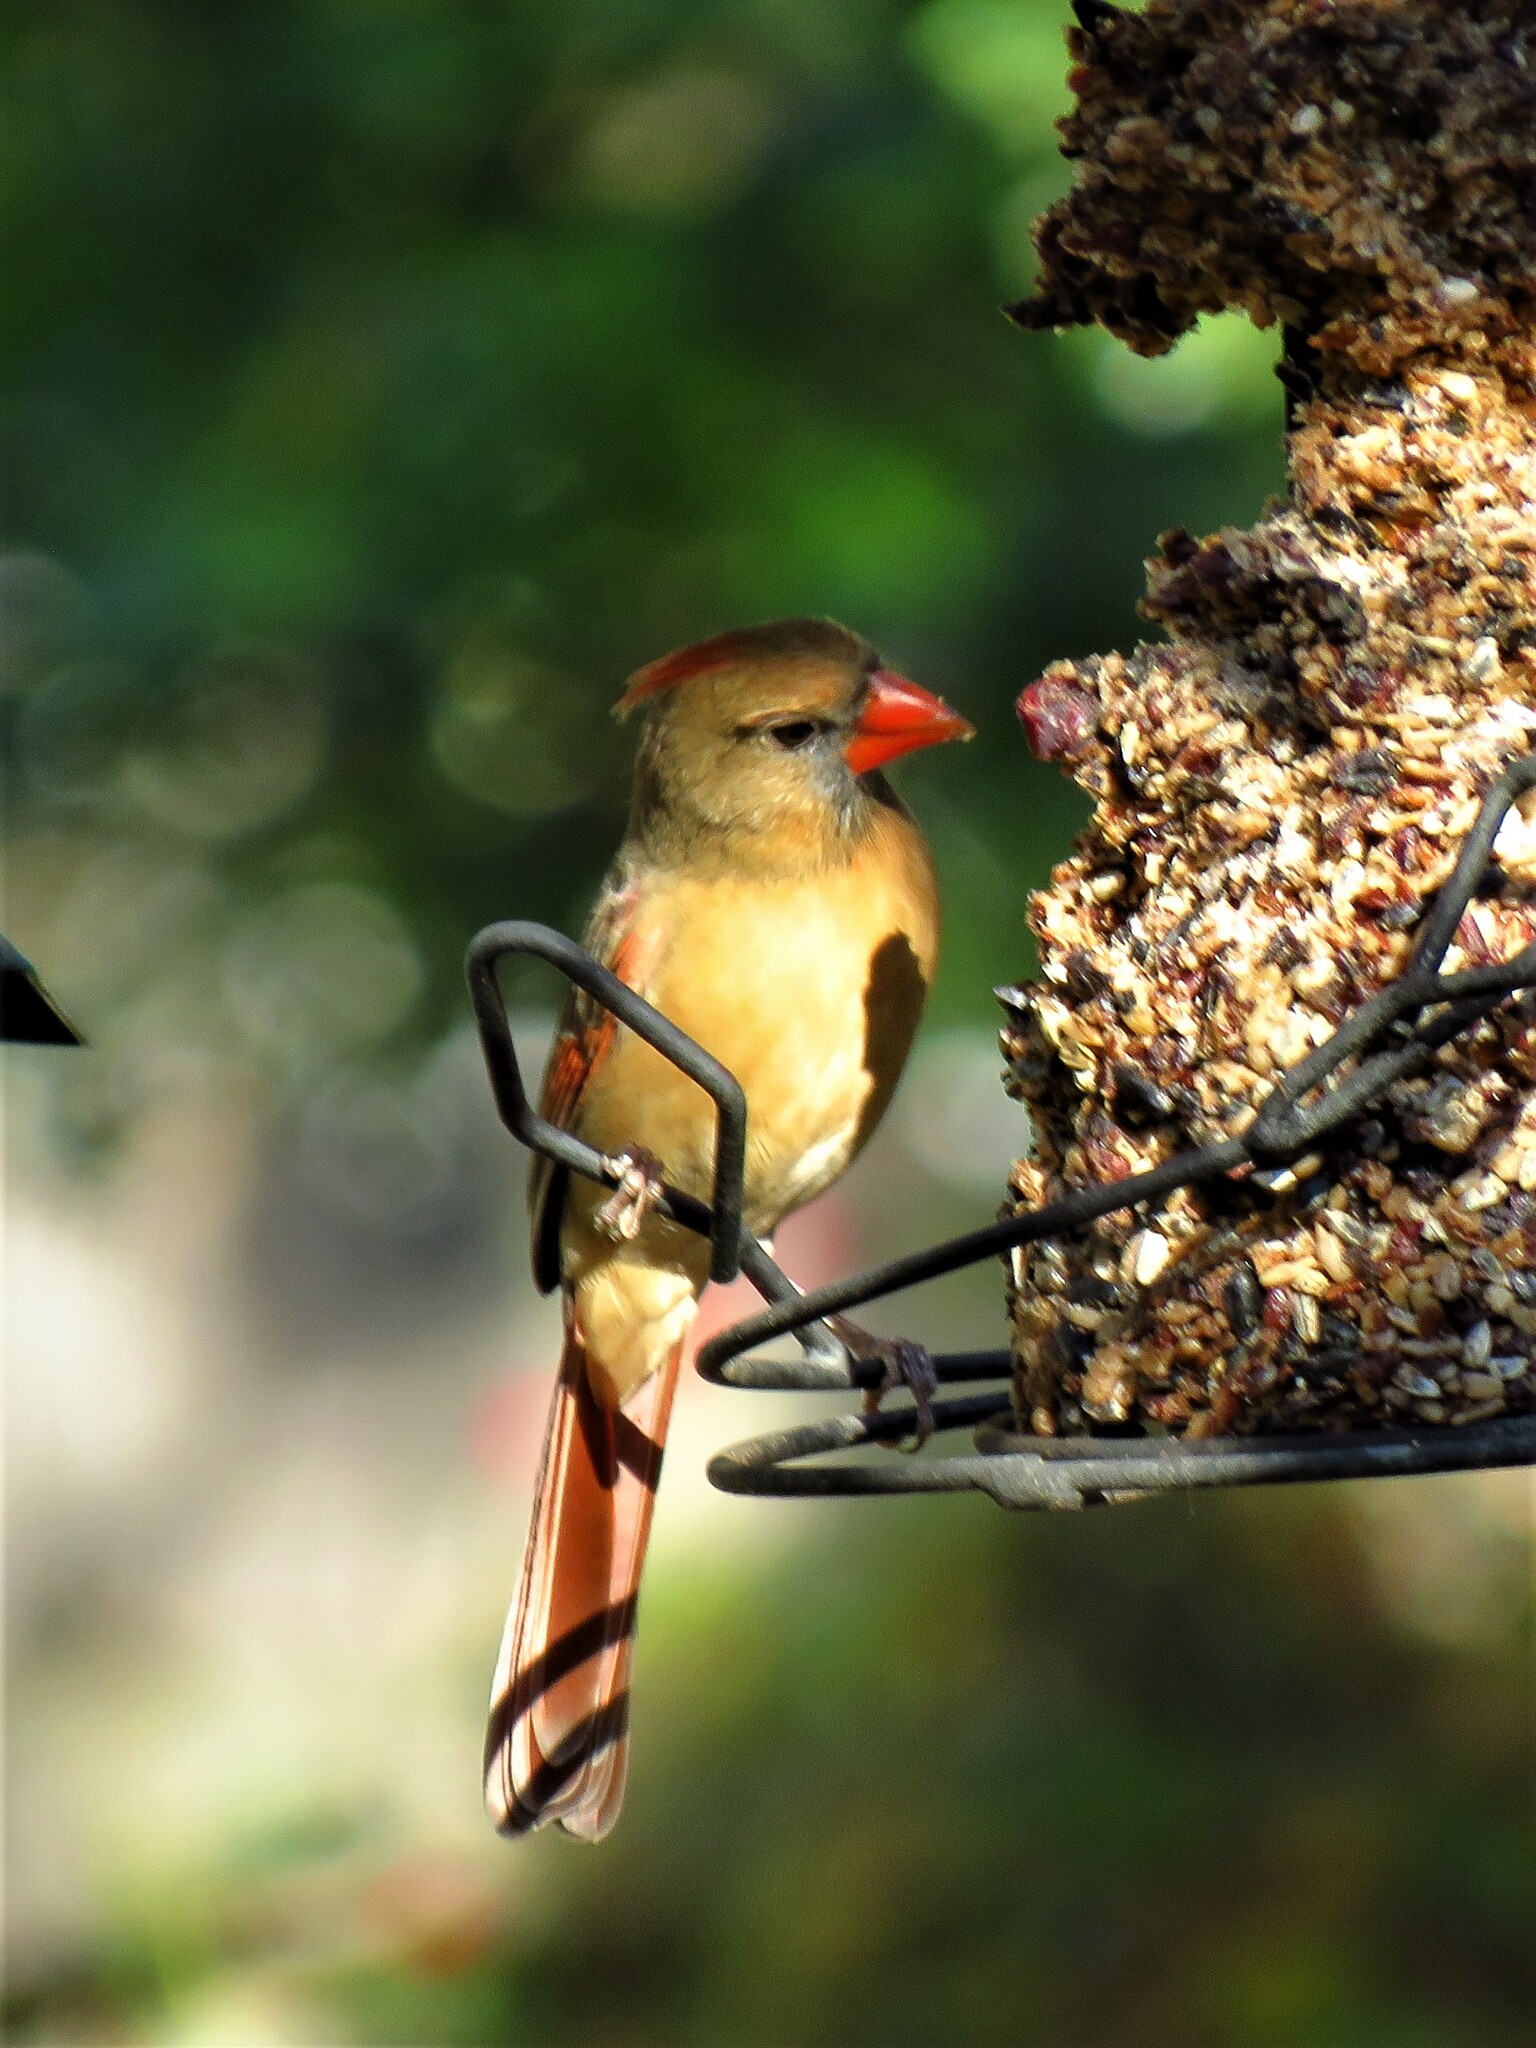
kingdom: Animalia
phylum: Chordata
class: Aves
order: Passeriformes
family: Cardinalidae
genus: Cardinalis
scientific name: Cardinalis cardinalis
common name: Northern cardinal
